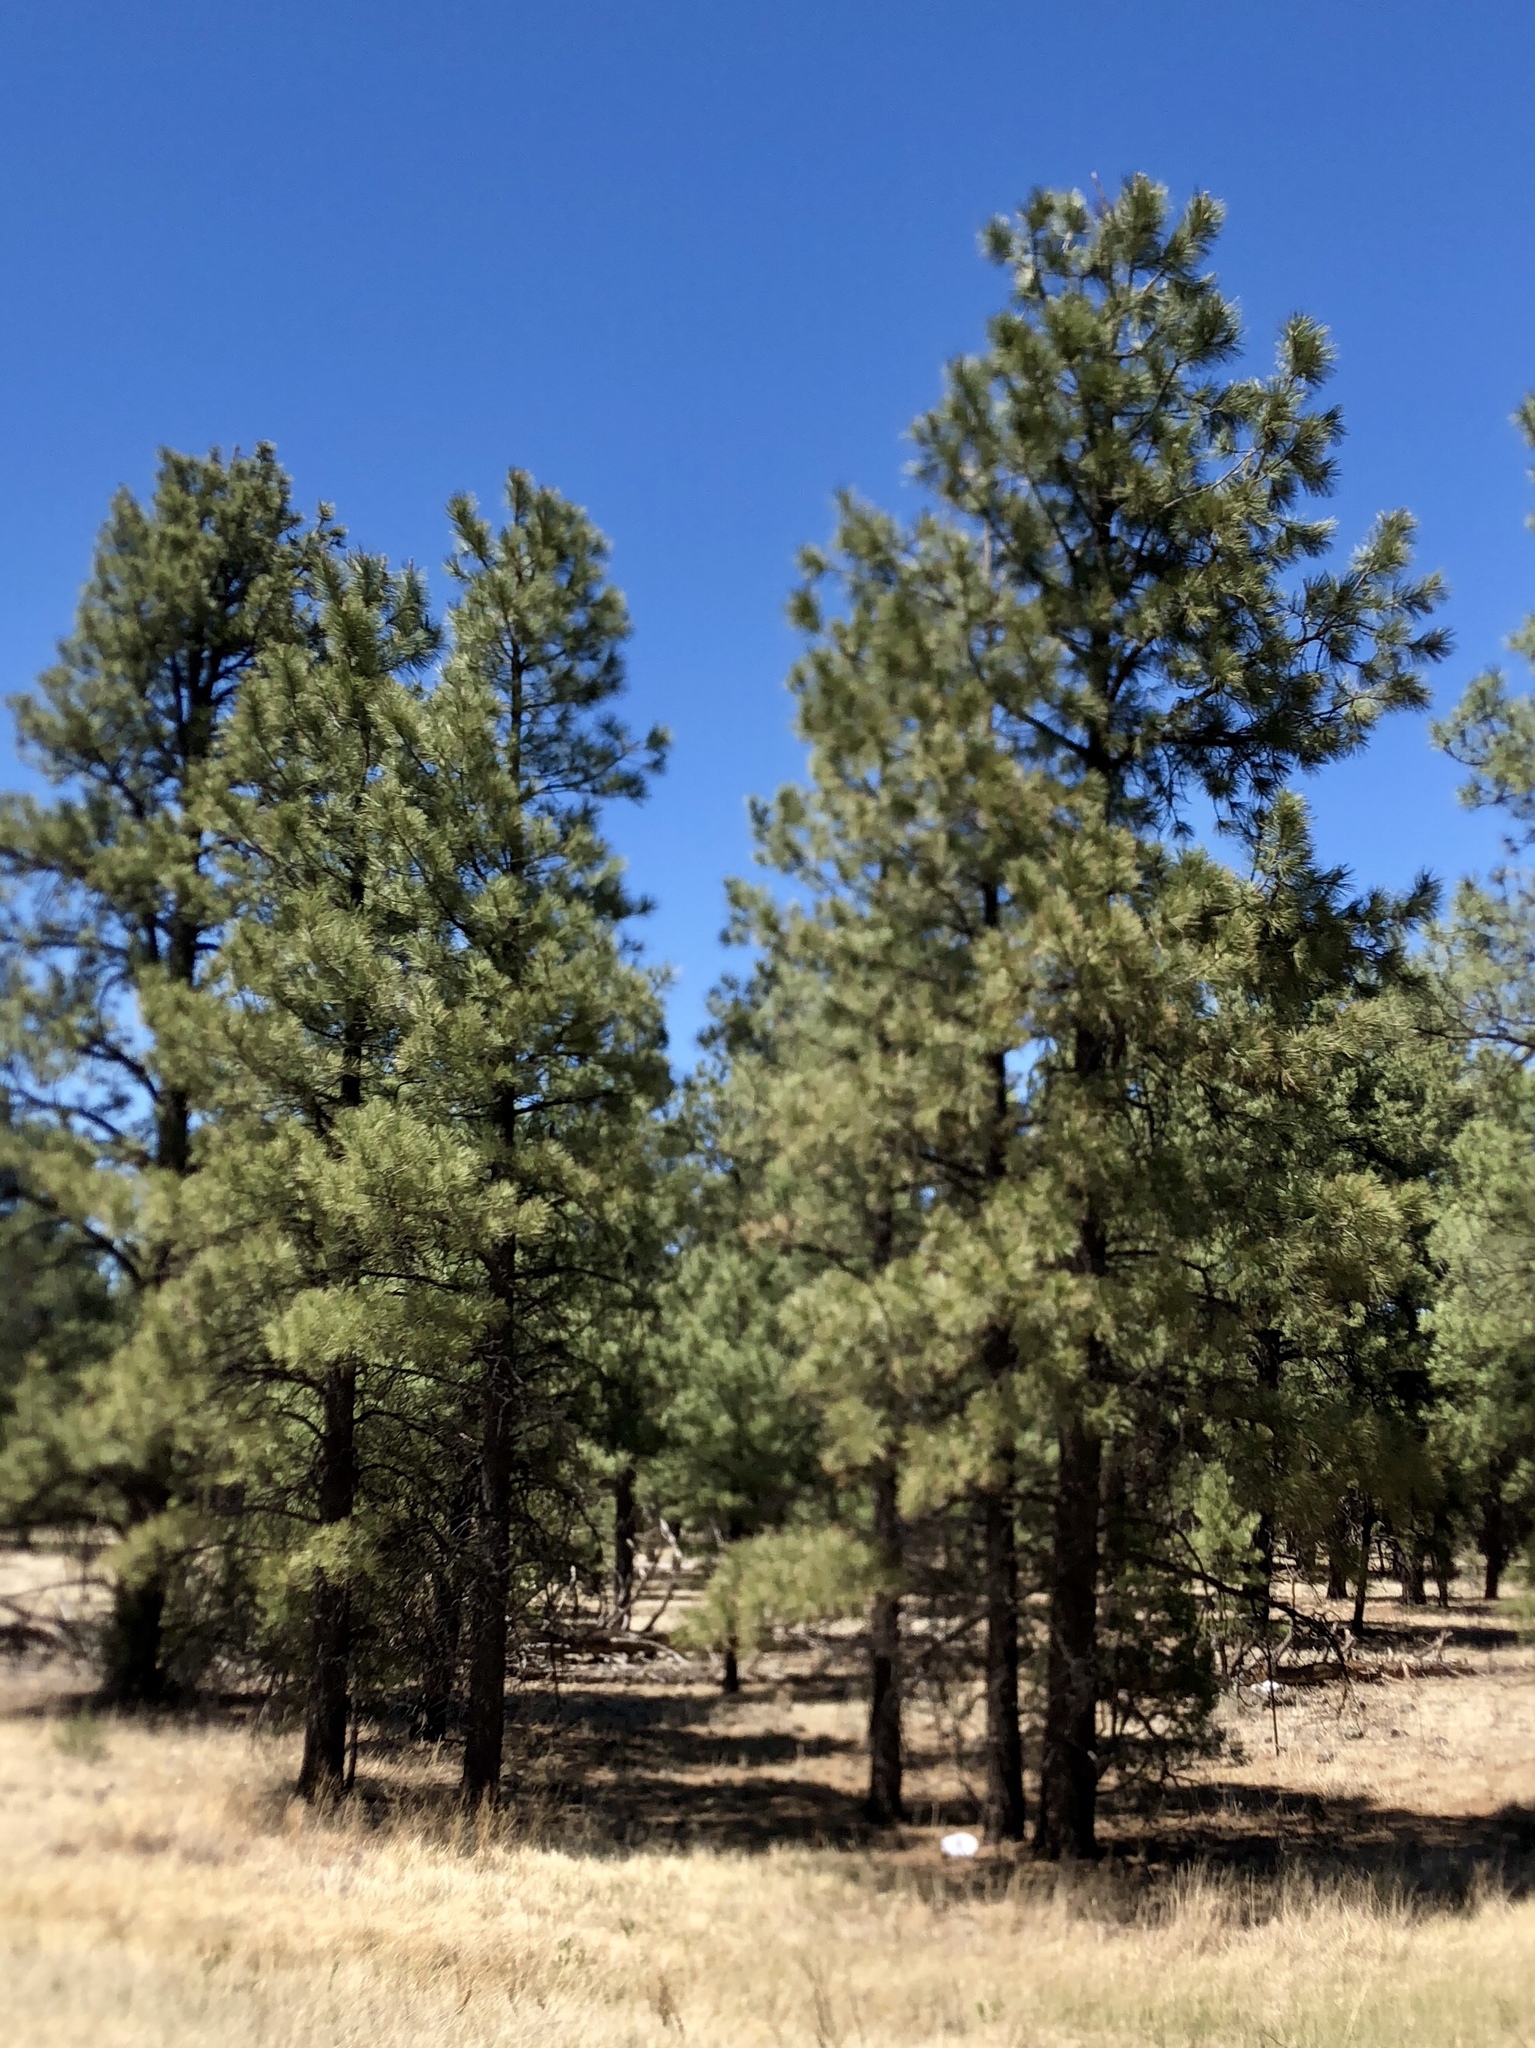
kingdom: Plantae
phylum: Tracheophyta
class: Pinopsida
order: Pinales
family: Pinaceae
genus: Pinus
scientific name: Pinus ponderosa
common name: Western yellow-pine
